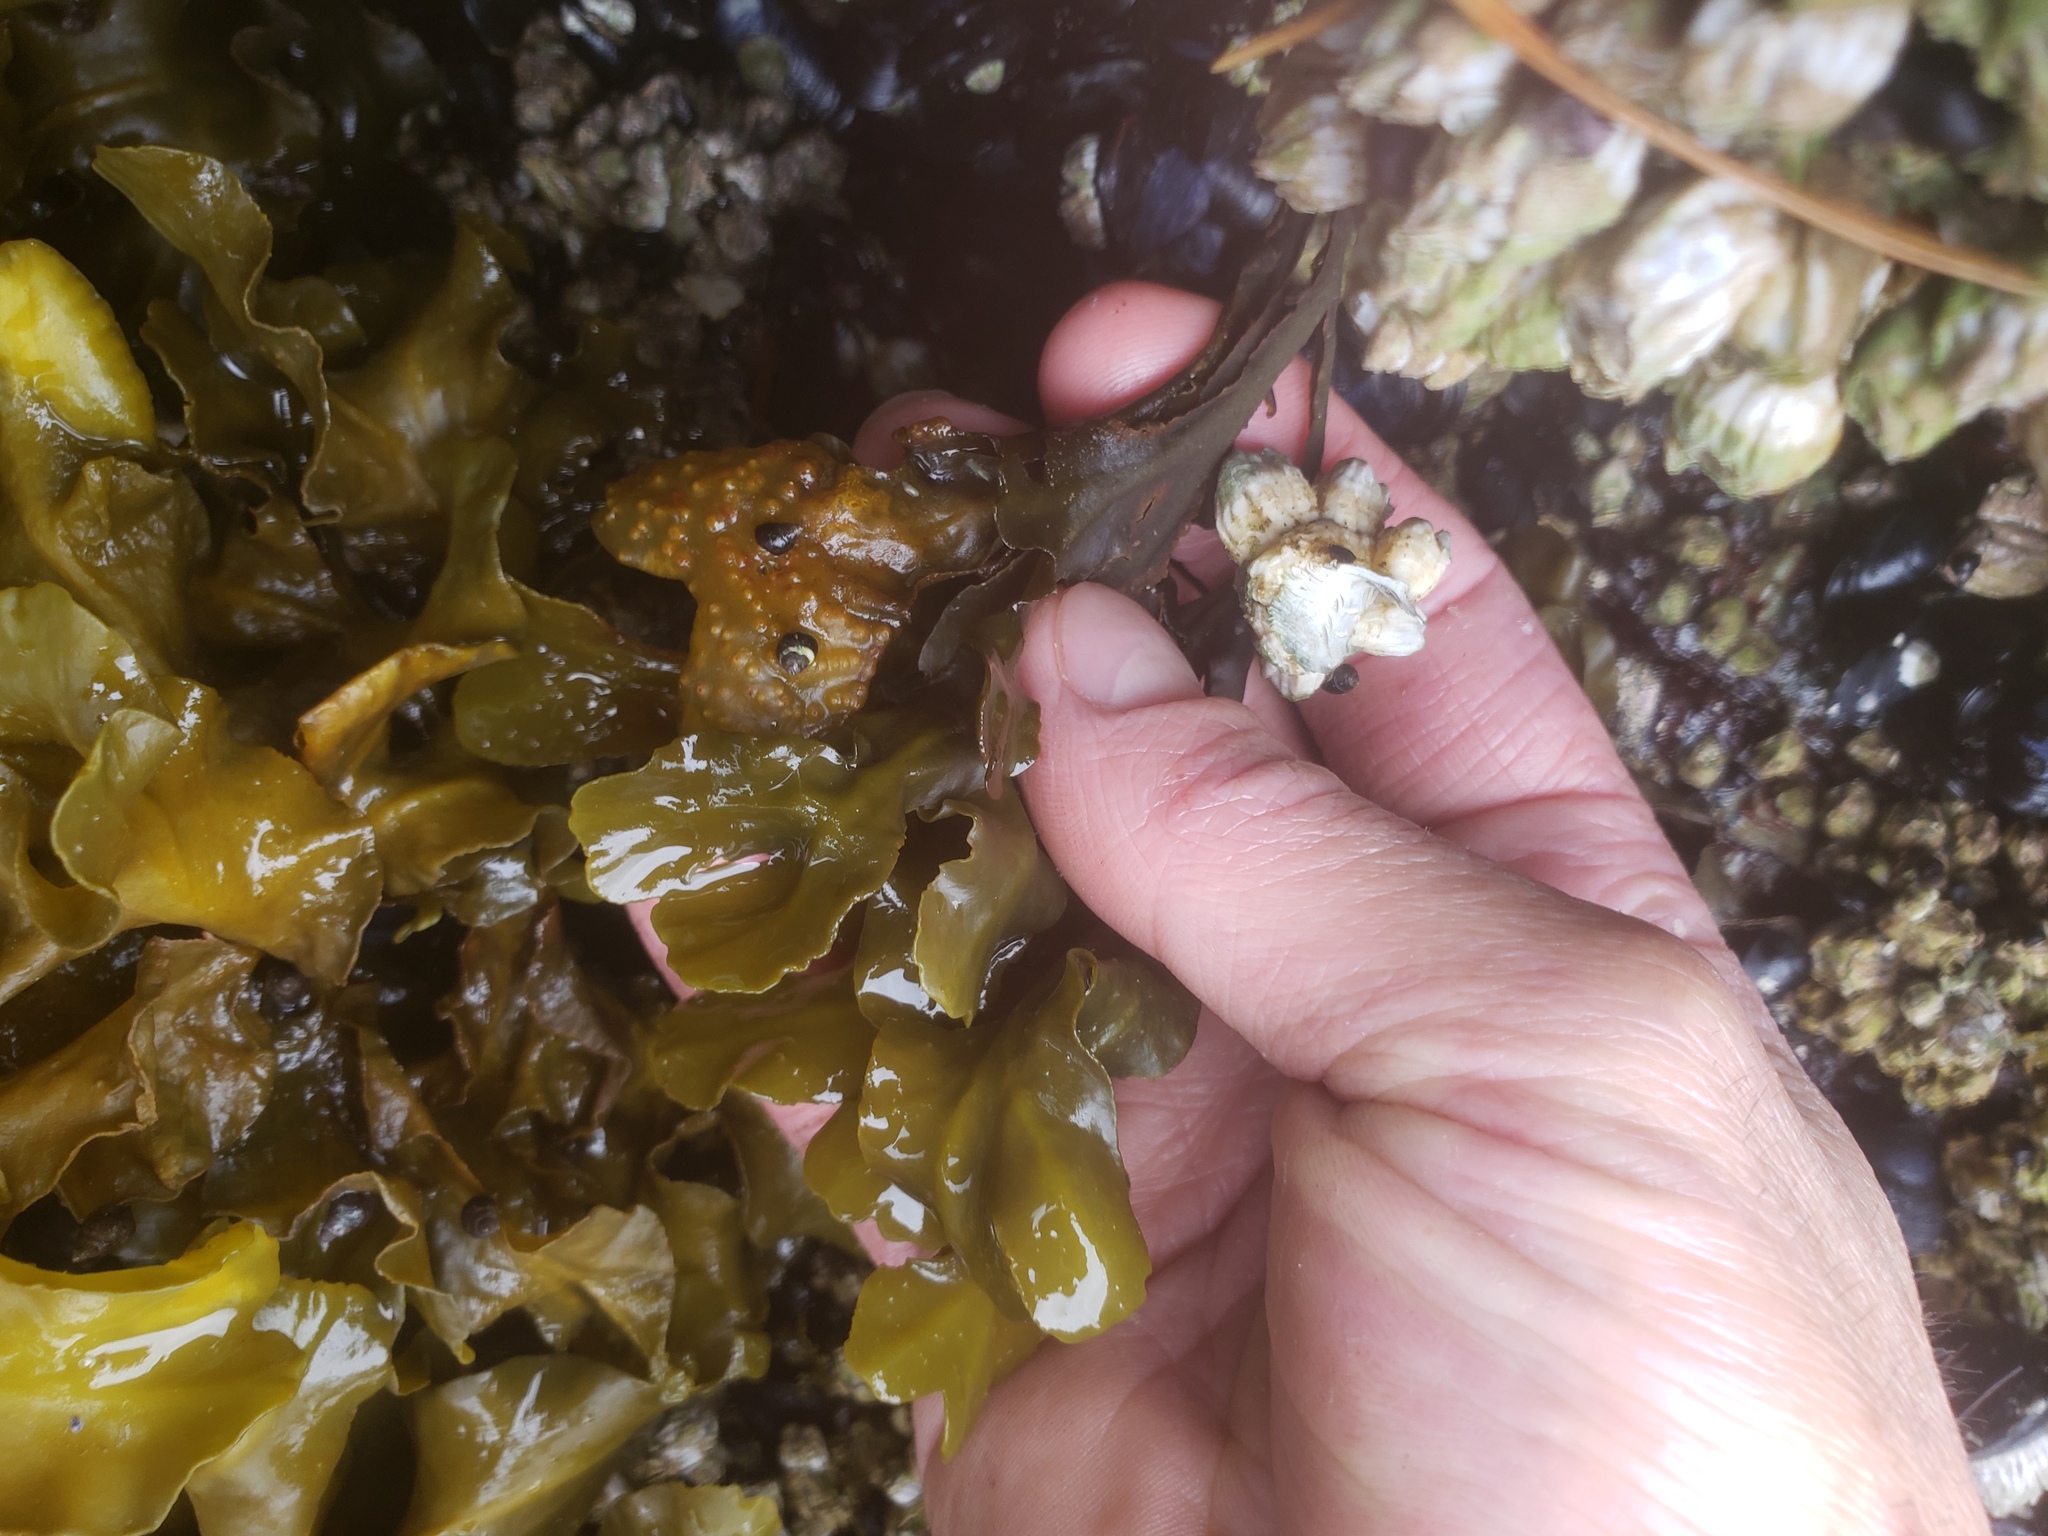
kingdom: Chromista
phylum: Ochrophyta
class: Phaeophyceae
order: Fucales
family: Fucaceae
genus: Fucus
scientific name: Fucus distichus
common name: Rockweed
